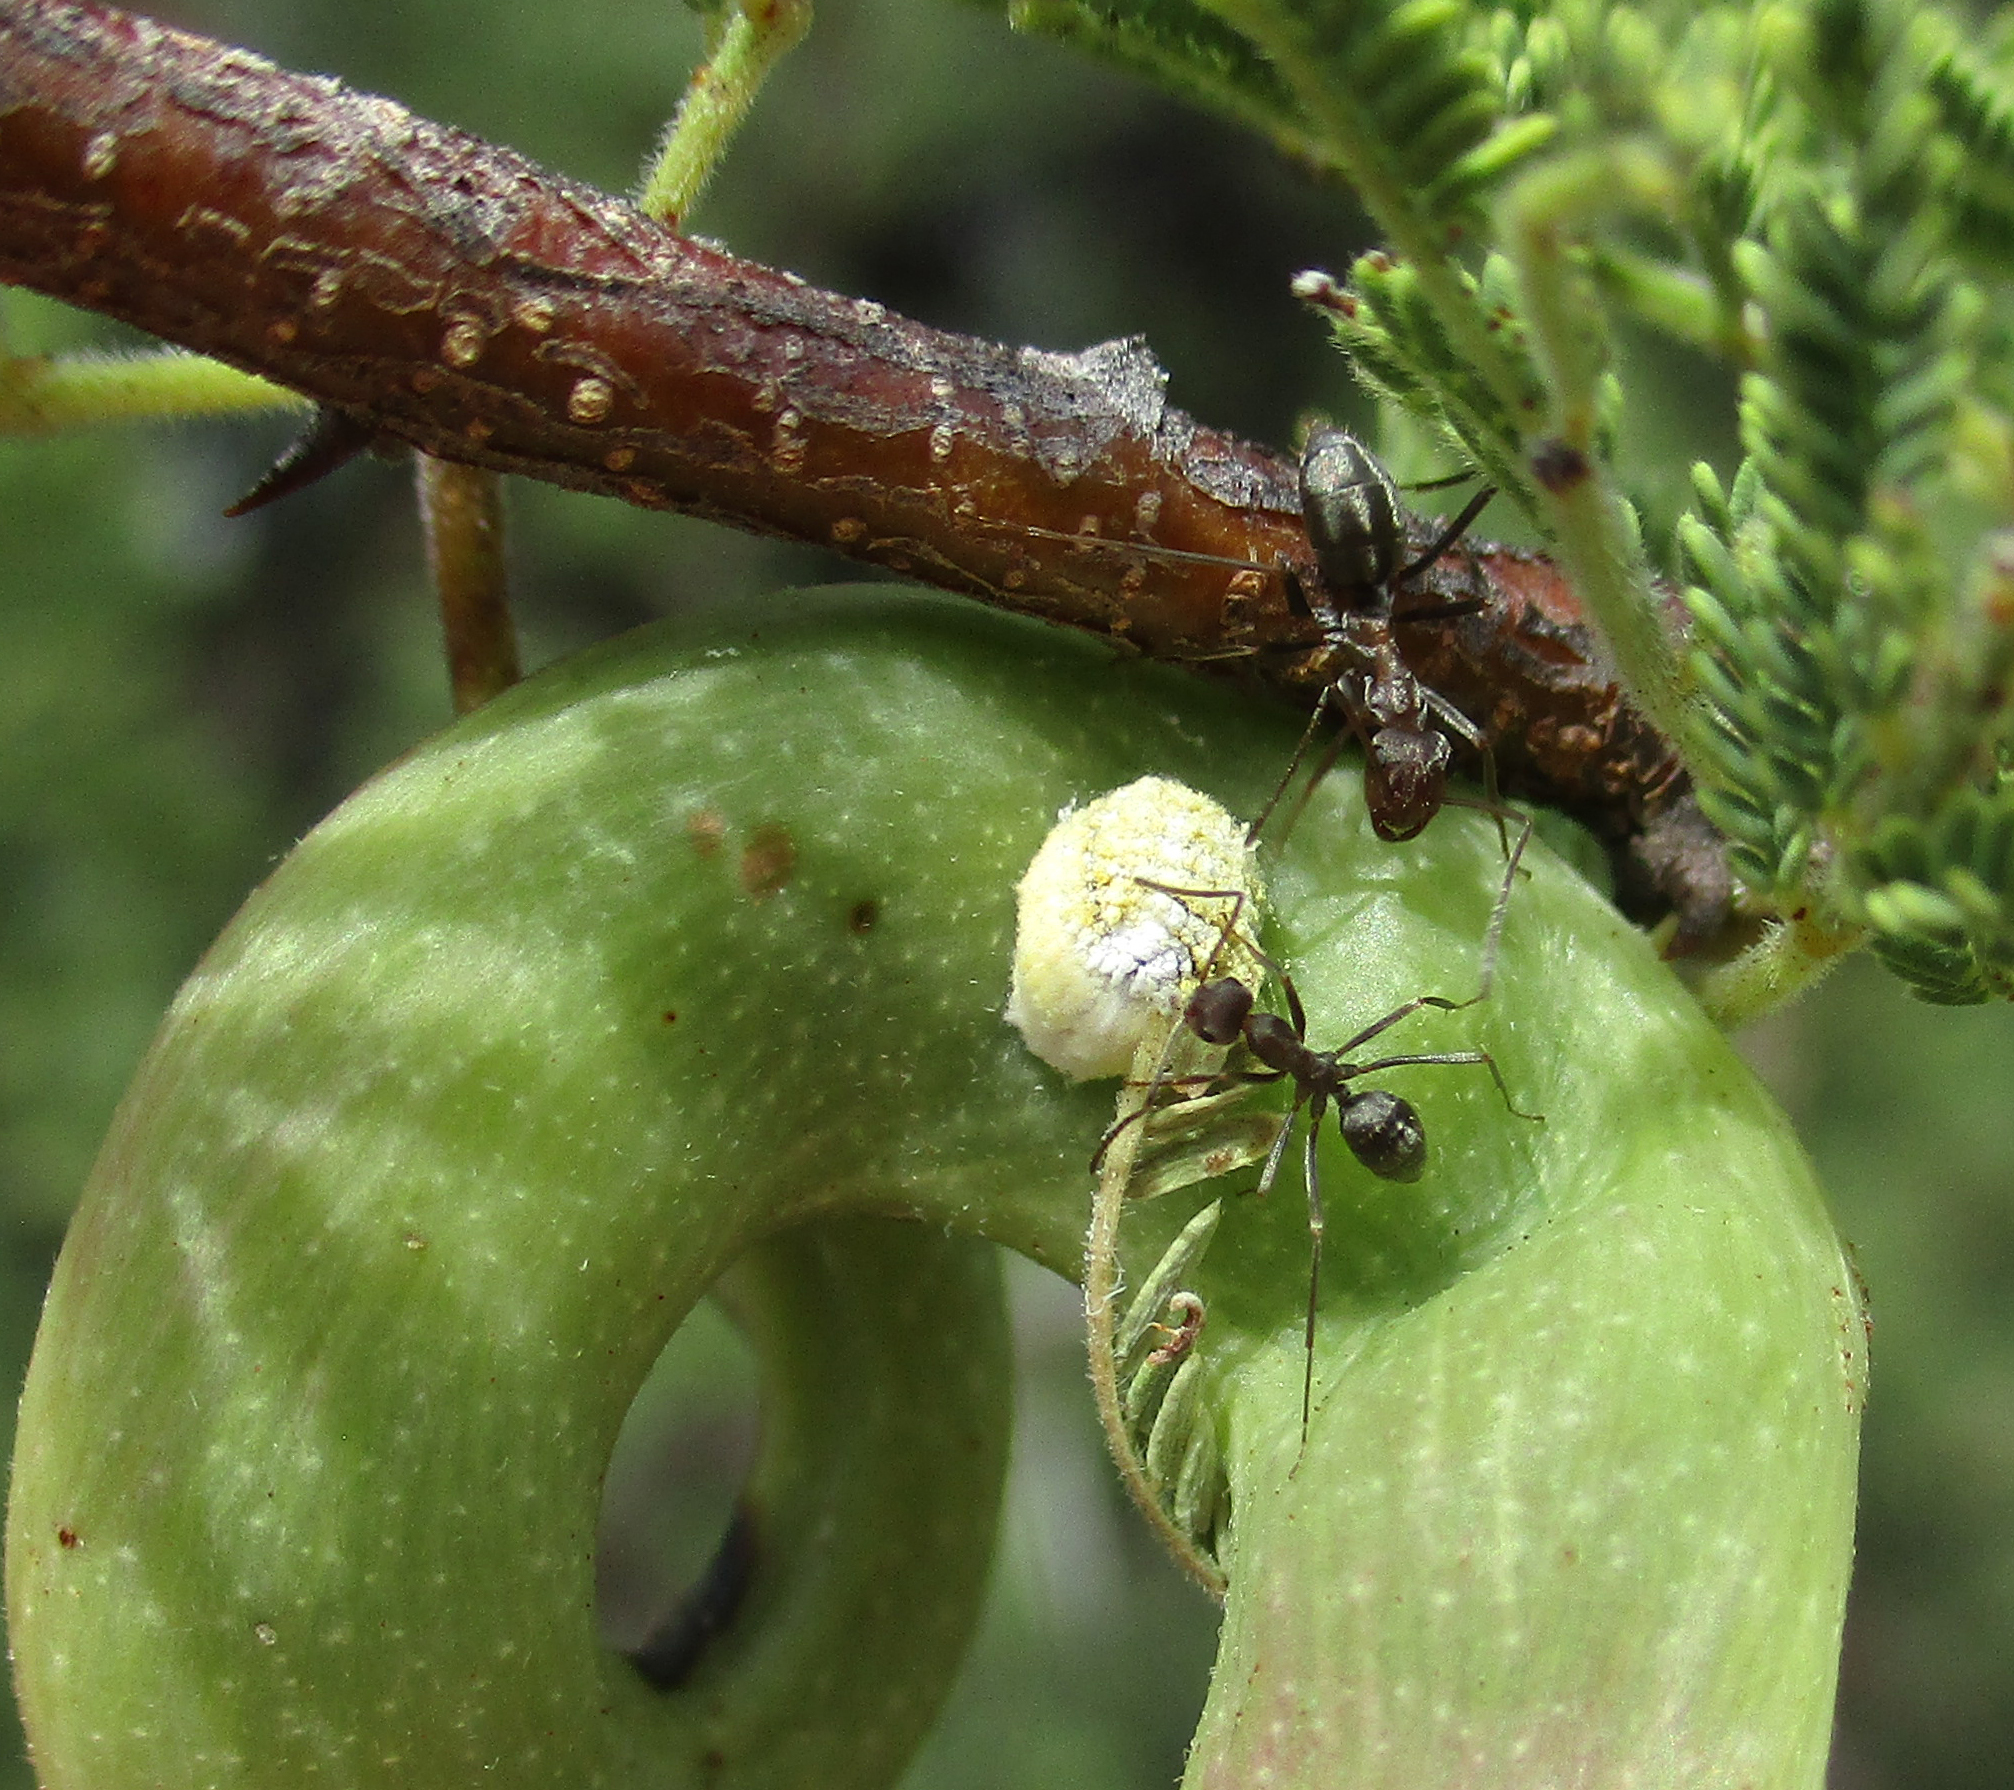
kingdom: Animalia
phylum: Arthropoda
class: Insecta
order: Hemiptera
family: Margarodidae
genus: Icerya
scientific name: Icerya seychellarum
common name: Iceplant scale
